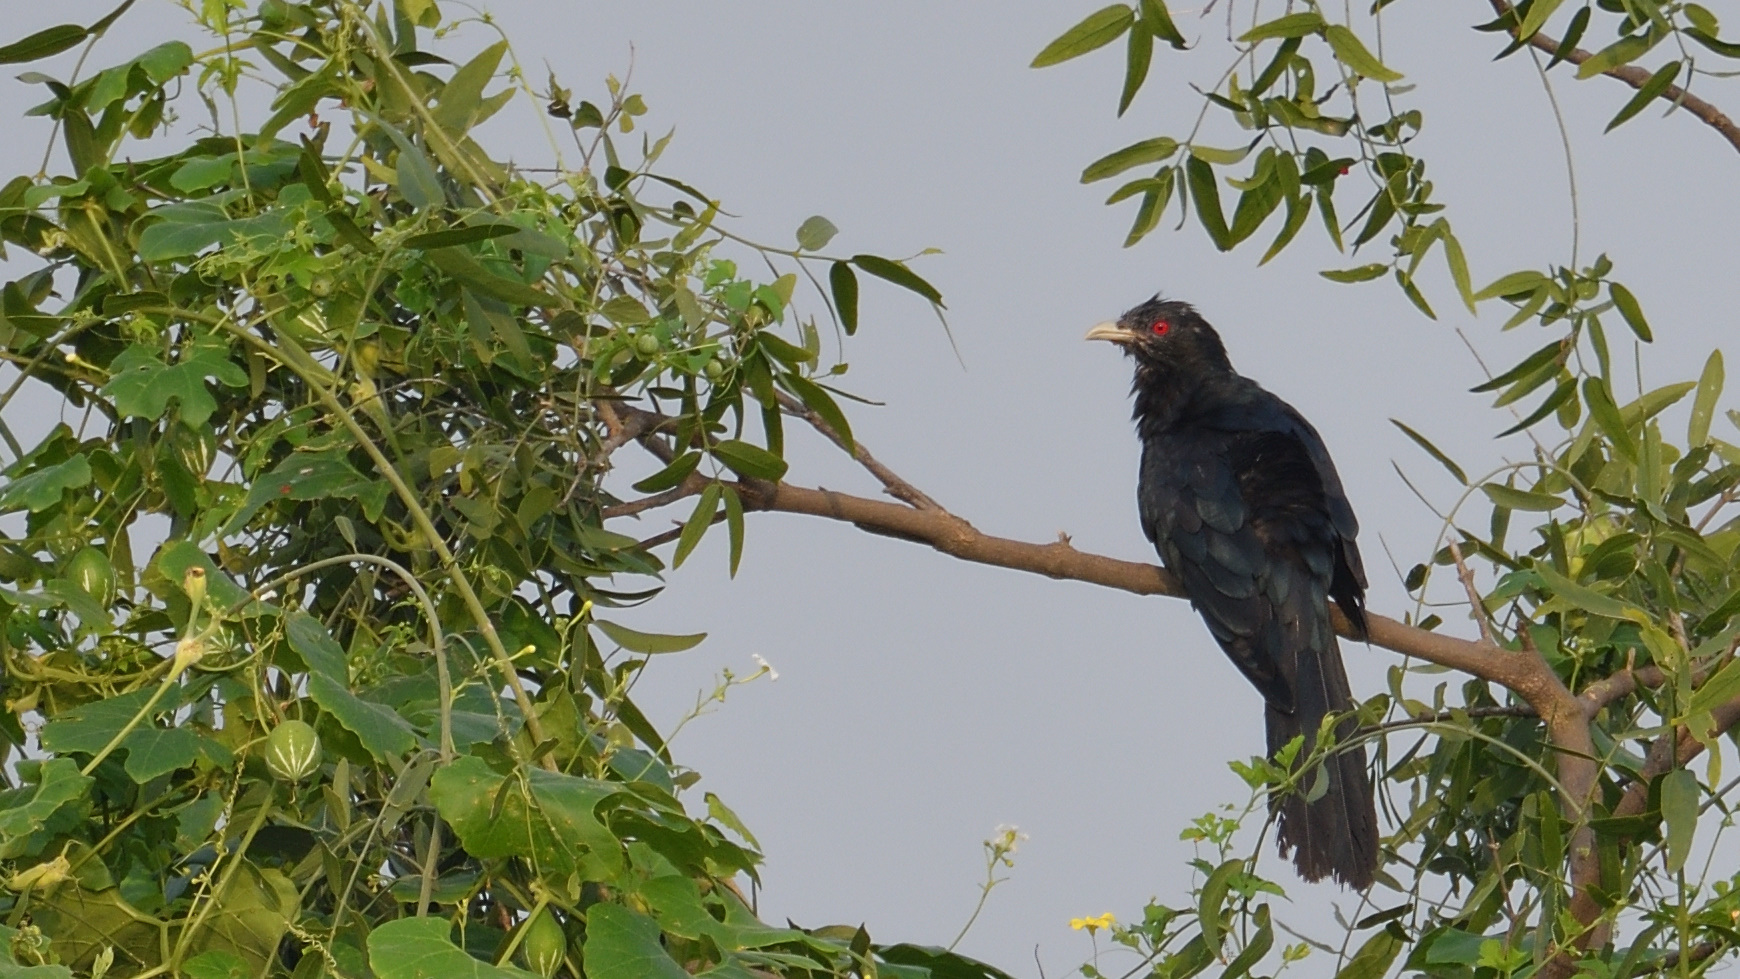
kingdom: Animalia
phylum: Chordata
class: Aves
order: Cuculiformes
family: Cuculidae
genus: Eudynamys
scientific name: Eudynamys scolopaceus
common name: Asian koel
